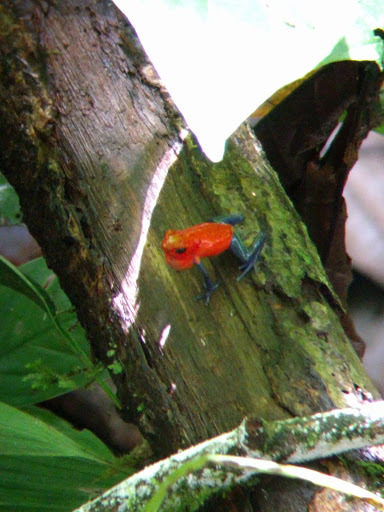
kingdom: Animalia
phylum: Chordata
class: Amphibia
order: Anura
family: Dendrobatidae
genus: Oophaga
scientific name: Oophaga pumilio
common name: Flaming poison frog
